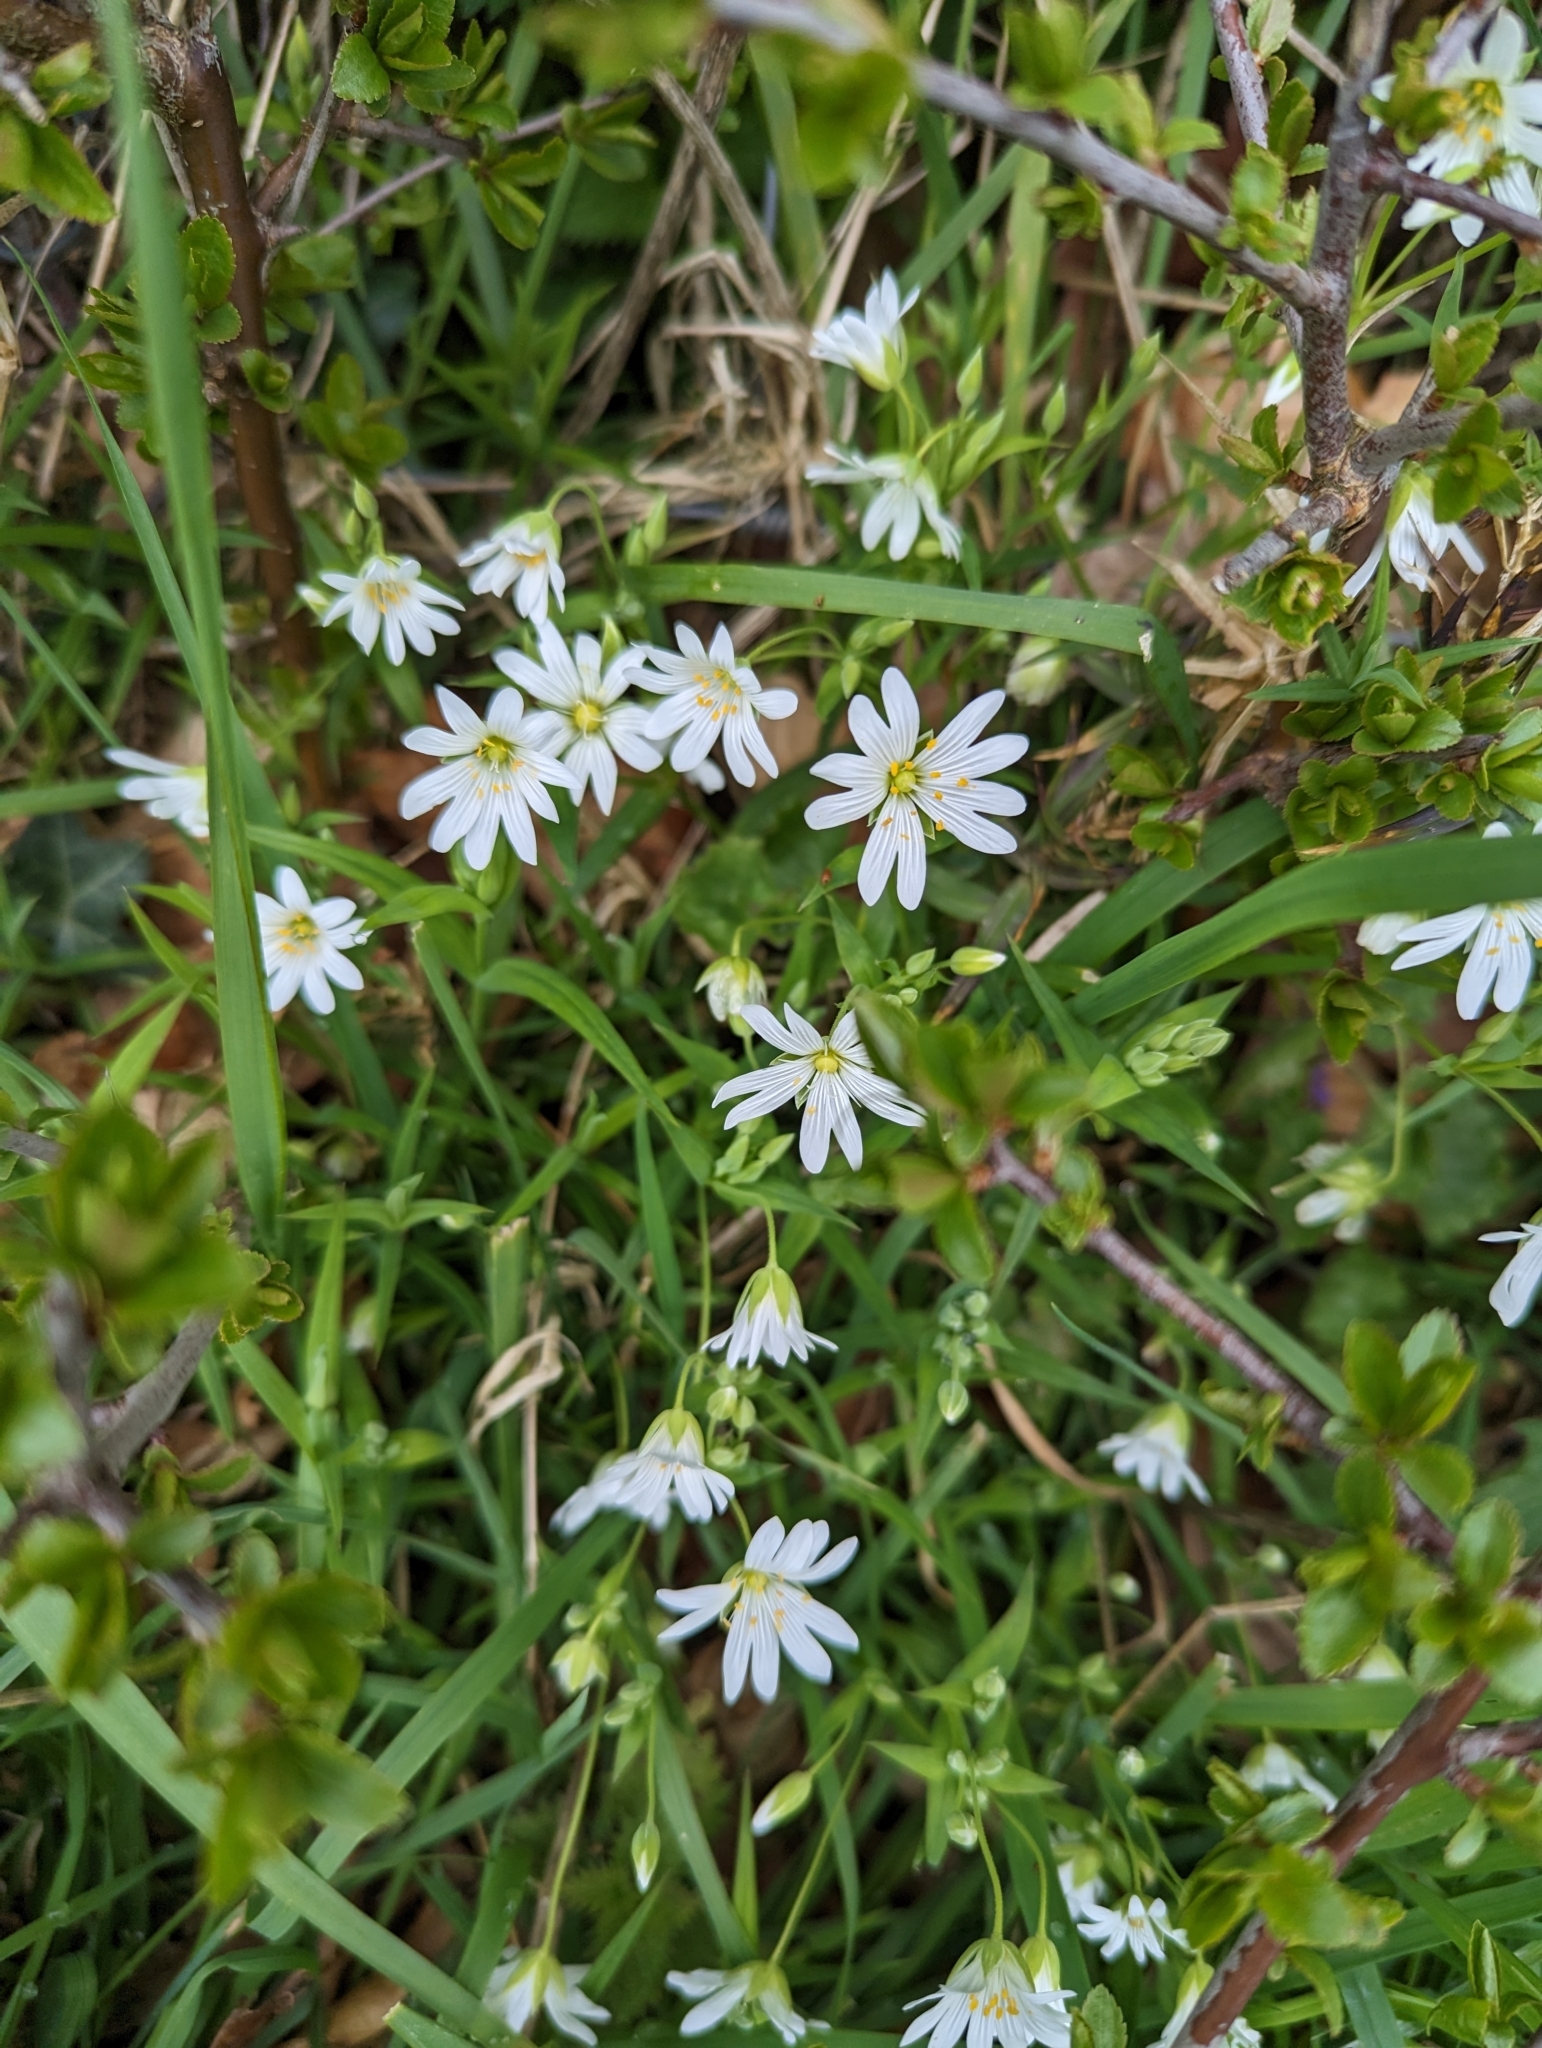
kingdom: Plantae
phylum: Tracheophyta
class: Magnoliopsida
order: Caryophyllales
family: Caryophyllaceae
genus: Rabelera
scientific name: Rabelera holostea
